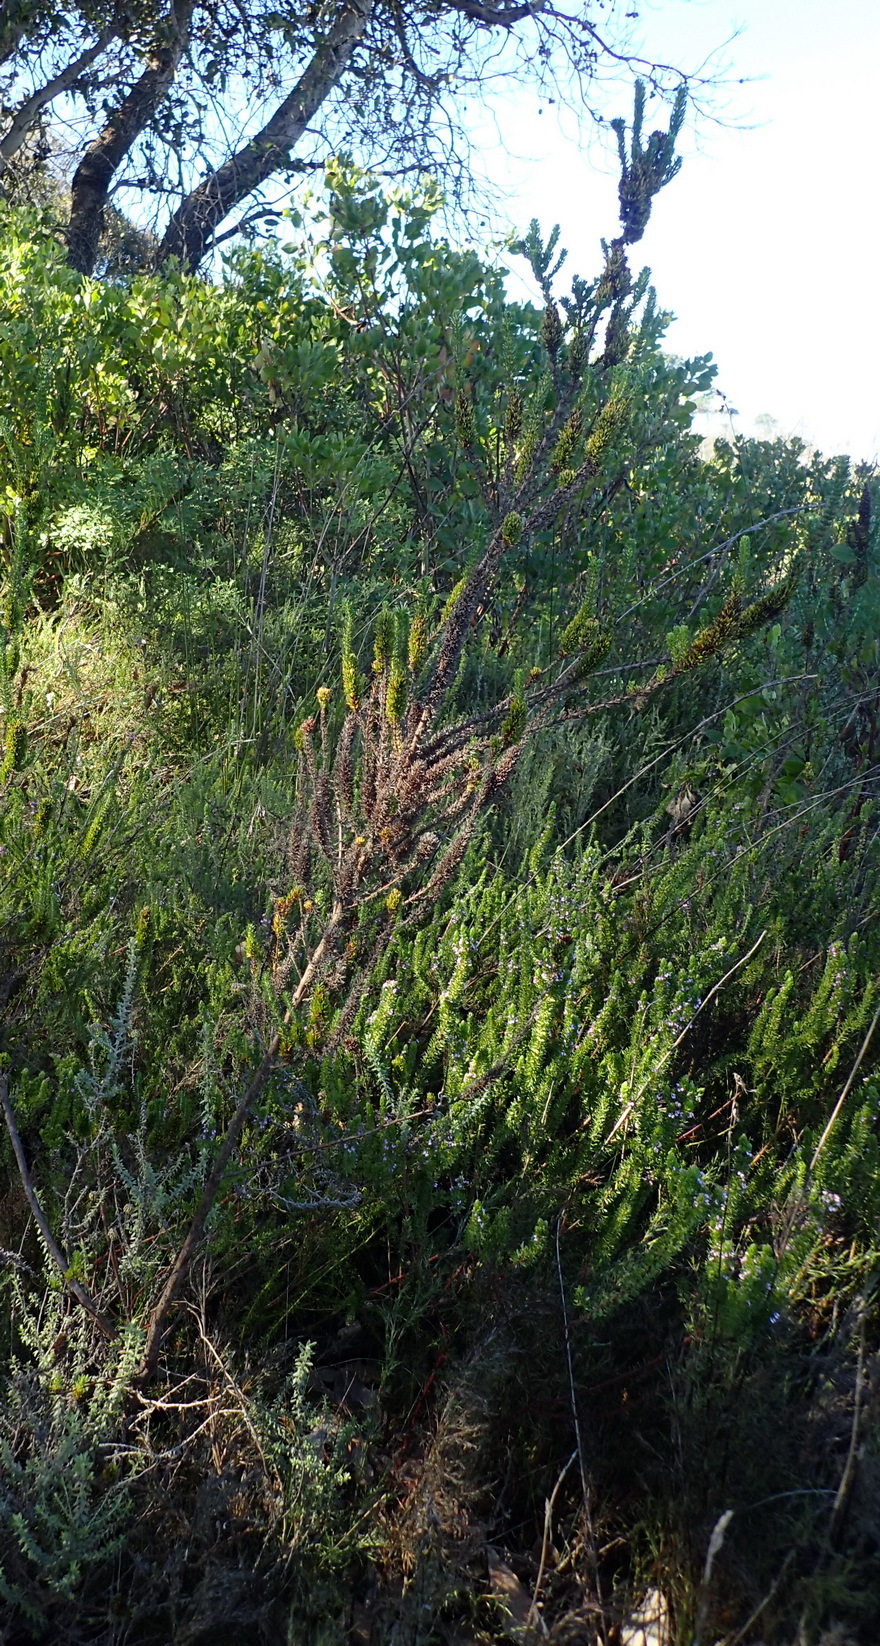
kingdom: Plantae
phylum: Tracheophyta
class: Magnoliopsida
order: Gentianales
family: Rubiaceae
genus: Anthospermum
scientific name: Anthospermum aethiopicum
